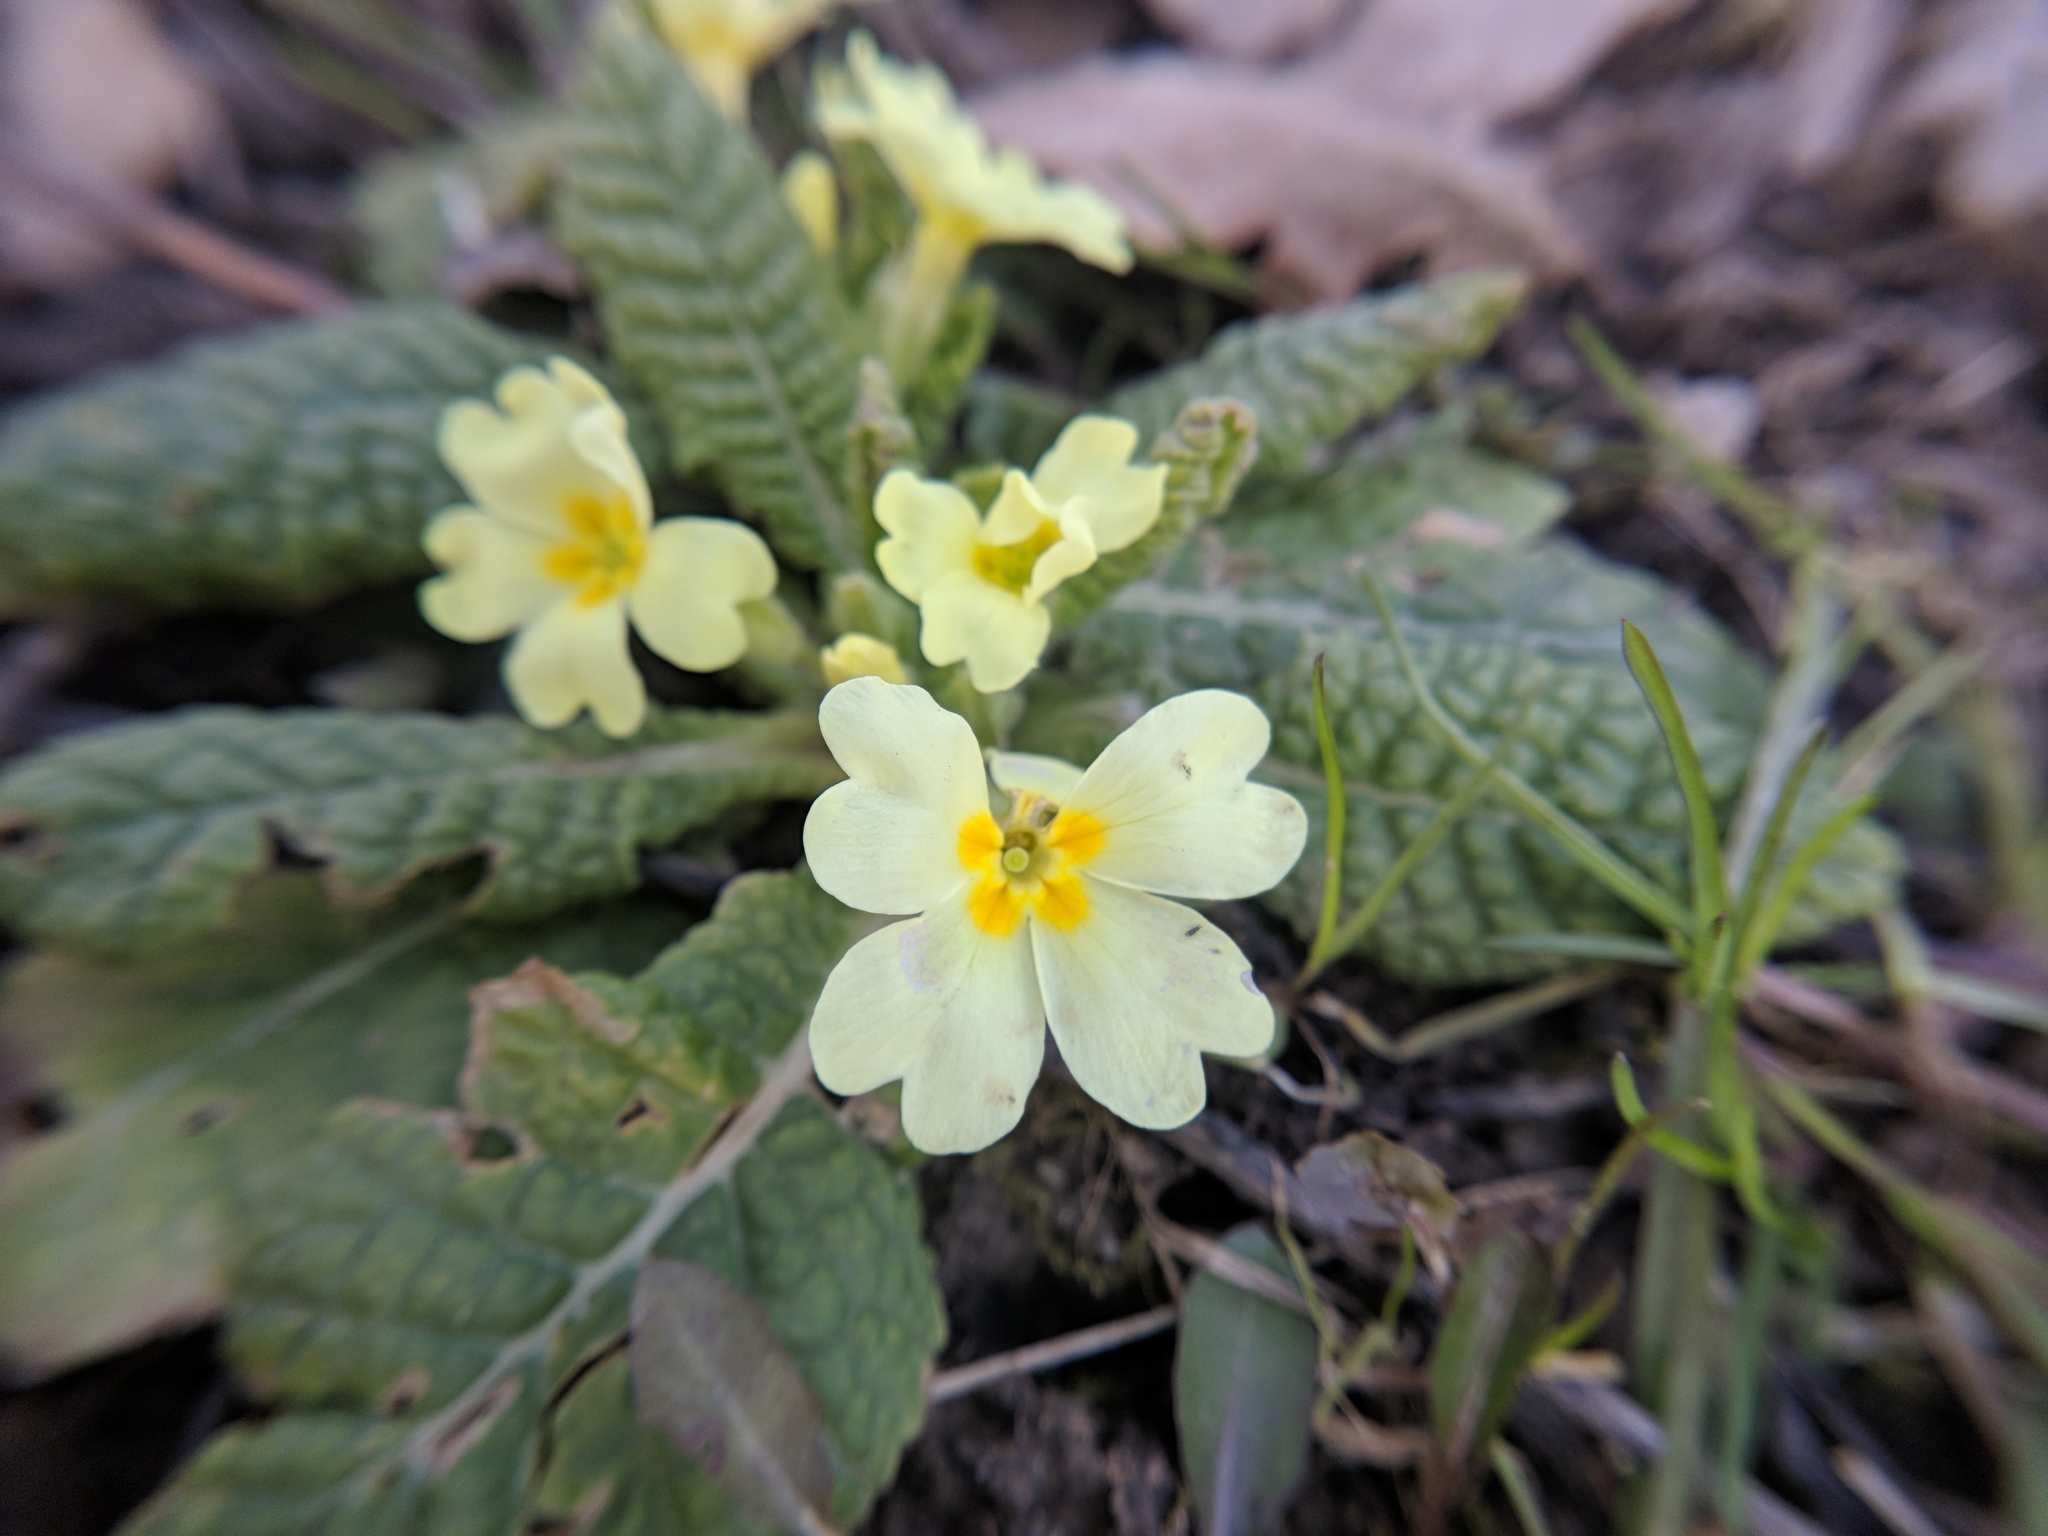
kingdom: Plantae
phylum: Tracheophyta
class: Magnoliopsida
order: Ericales
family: Primulaceae
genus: Primula
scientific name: Primula vulgaris
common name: Primrose
